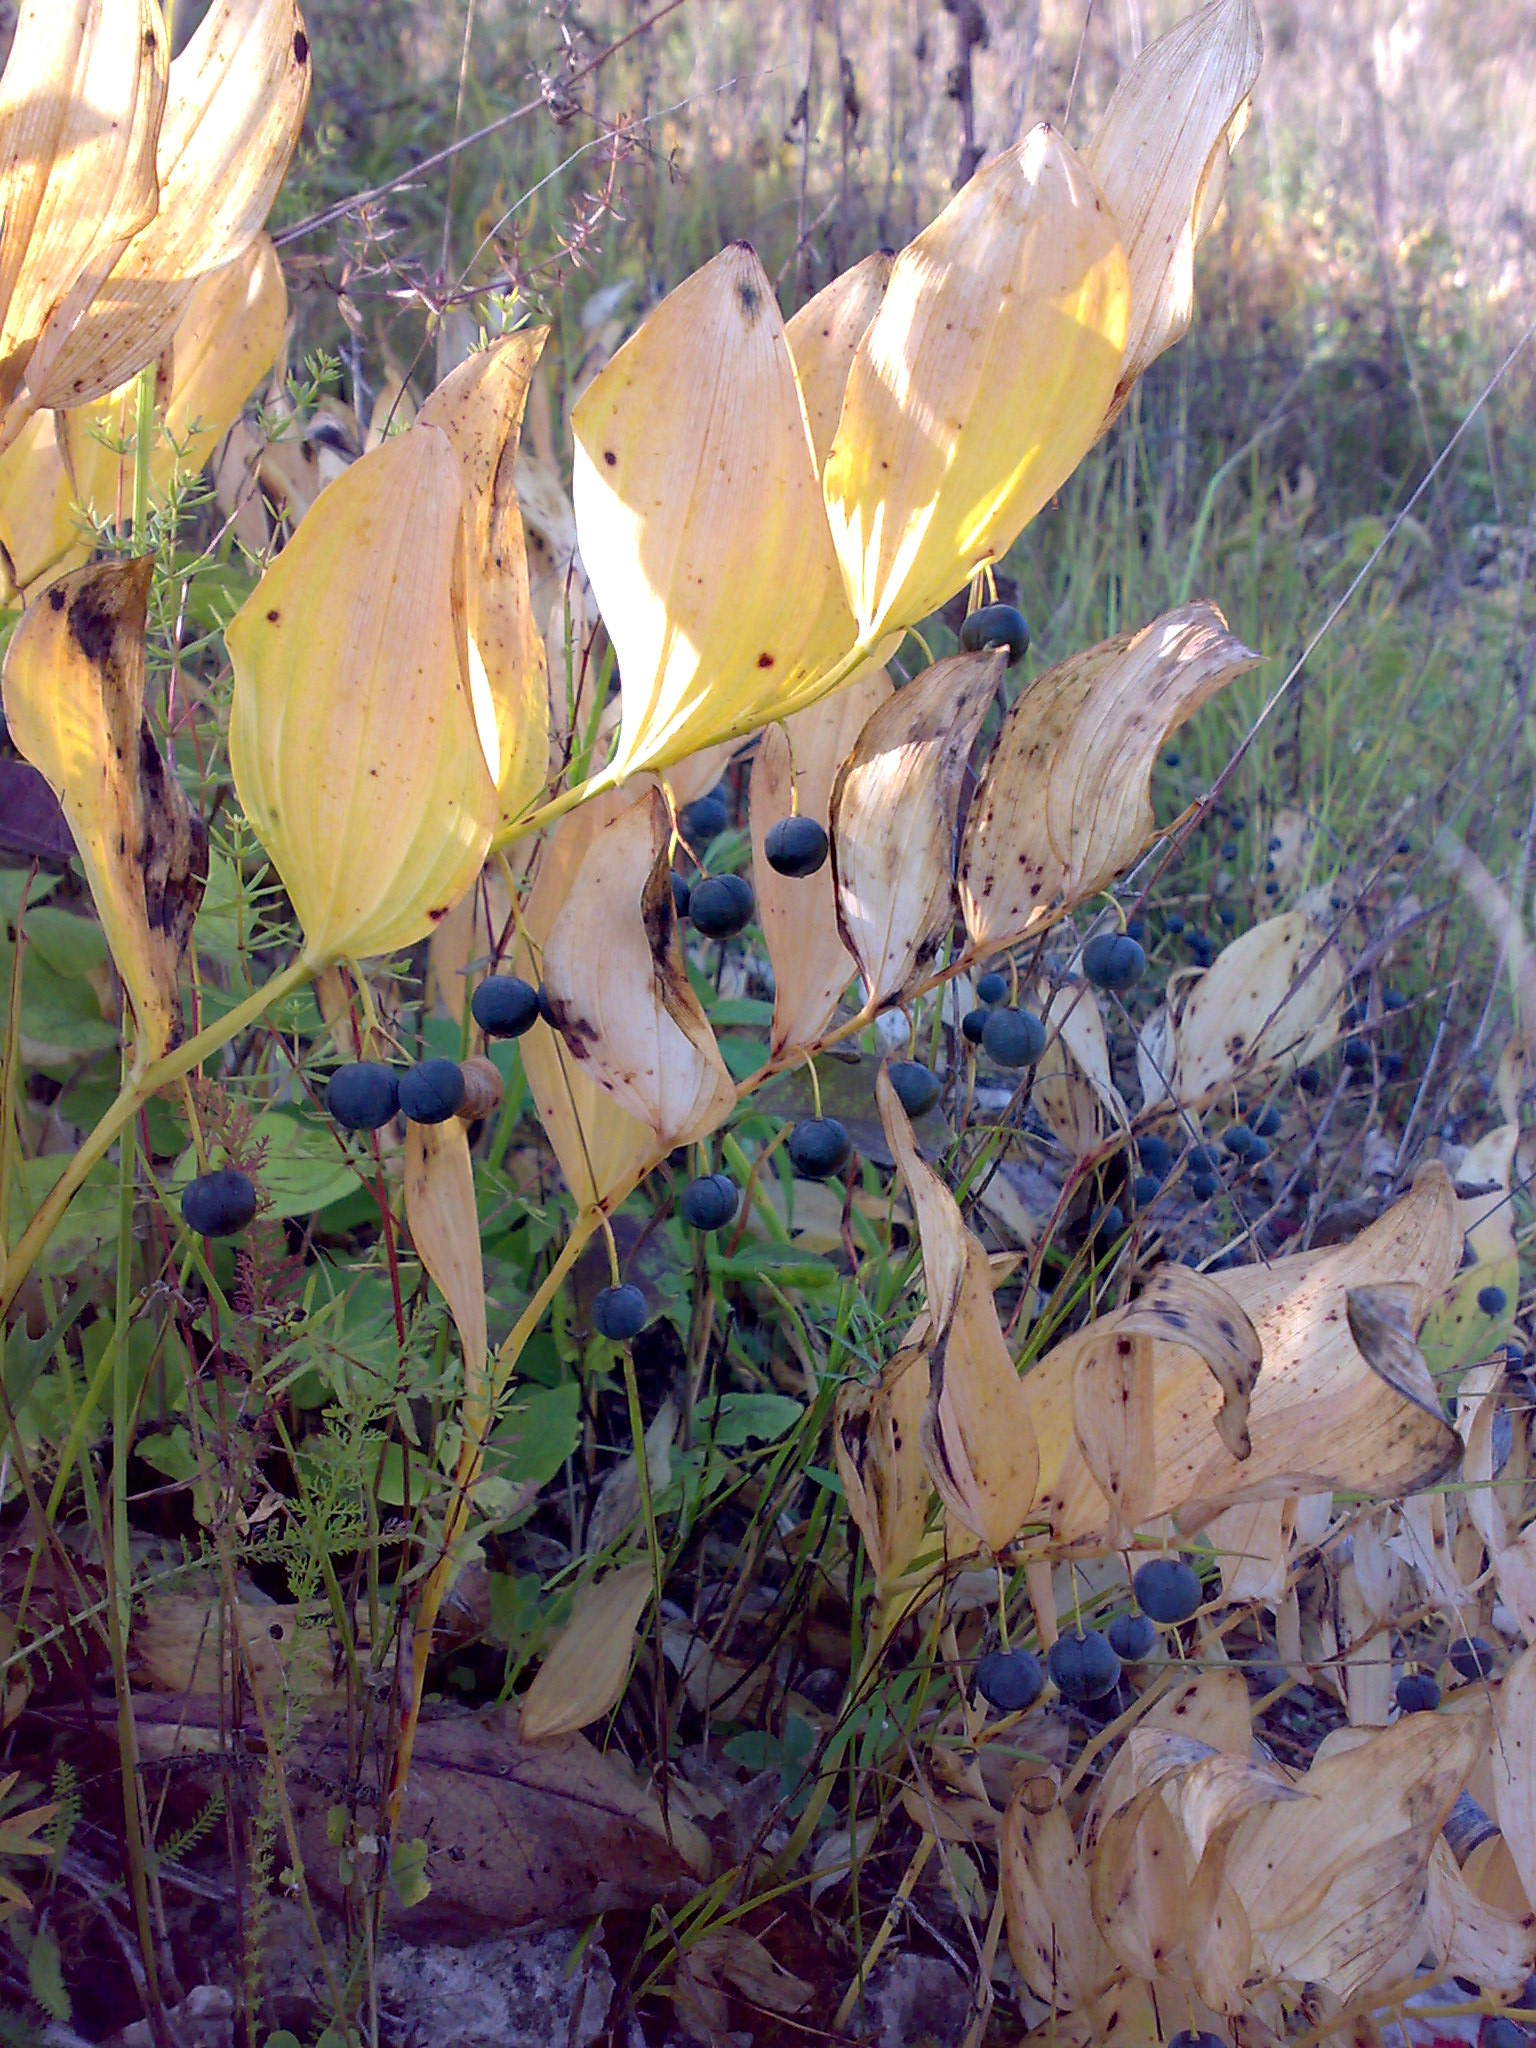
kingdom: Plantae
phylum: Tracheophyta
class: Liliopsida
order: Asparagales
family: Asparagaceae
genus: Polygonatum
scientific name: Polygonatum odoratum
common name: Angular solomon's-seal
